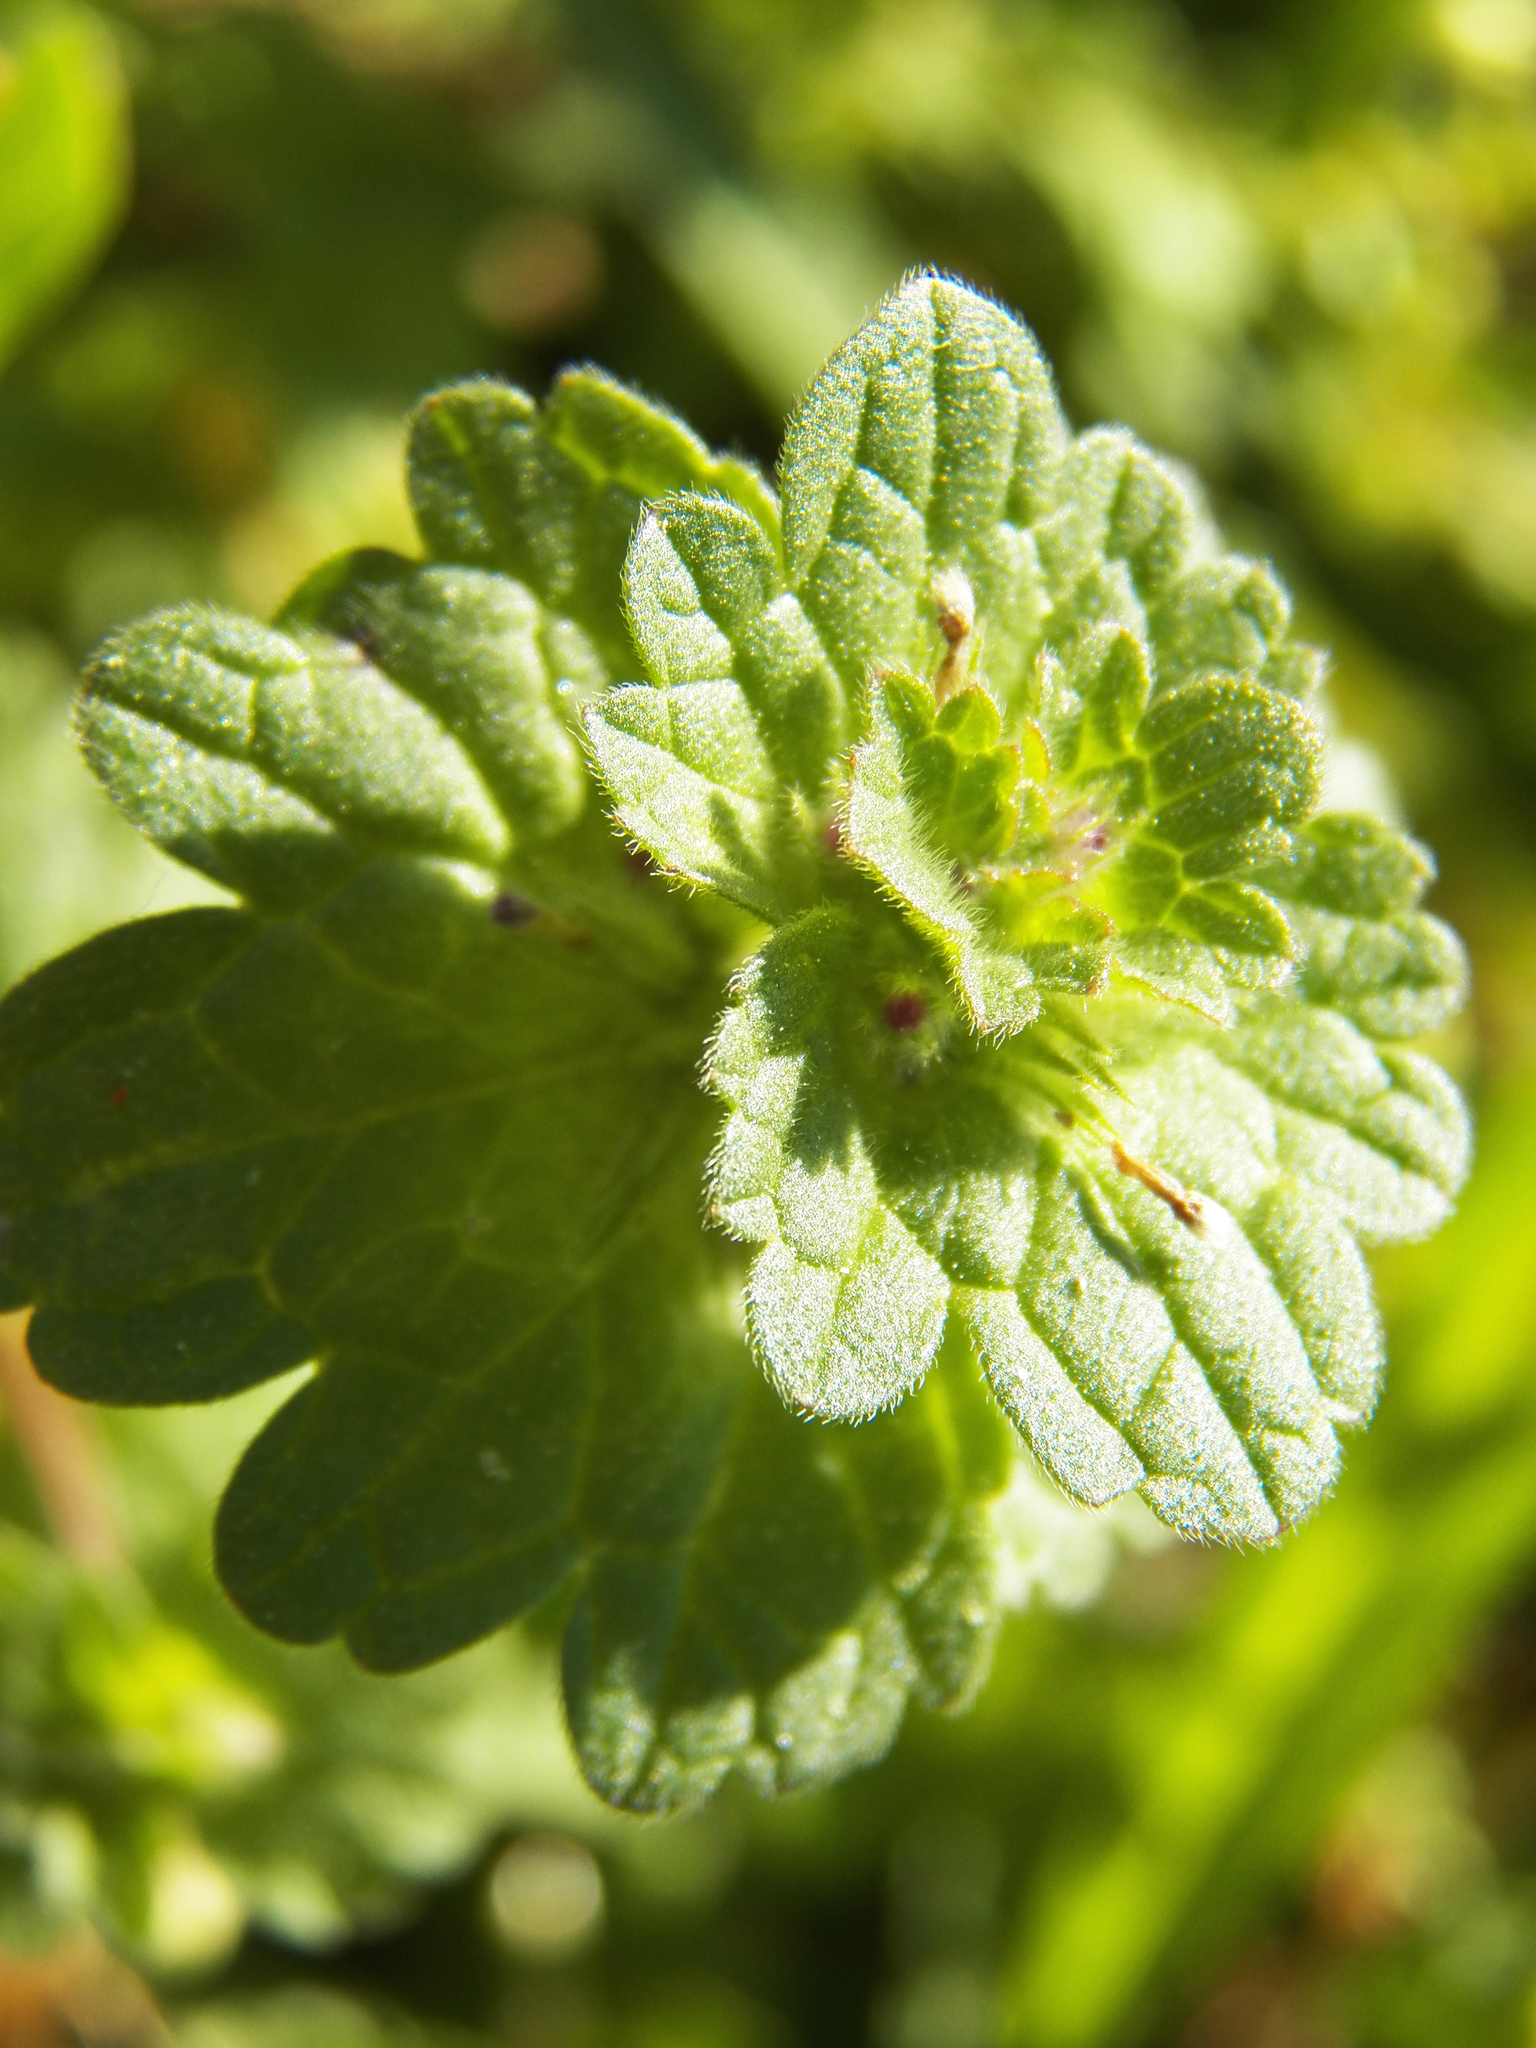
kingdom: Plantae
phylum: Tracheophyta
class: Magnoliopsida
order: Lamiales
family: Lamiaceae
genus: Lamium
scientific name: Lamium amplexicaule
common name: Henbit dead-nettle
